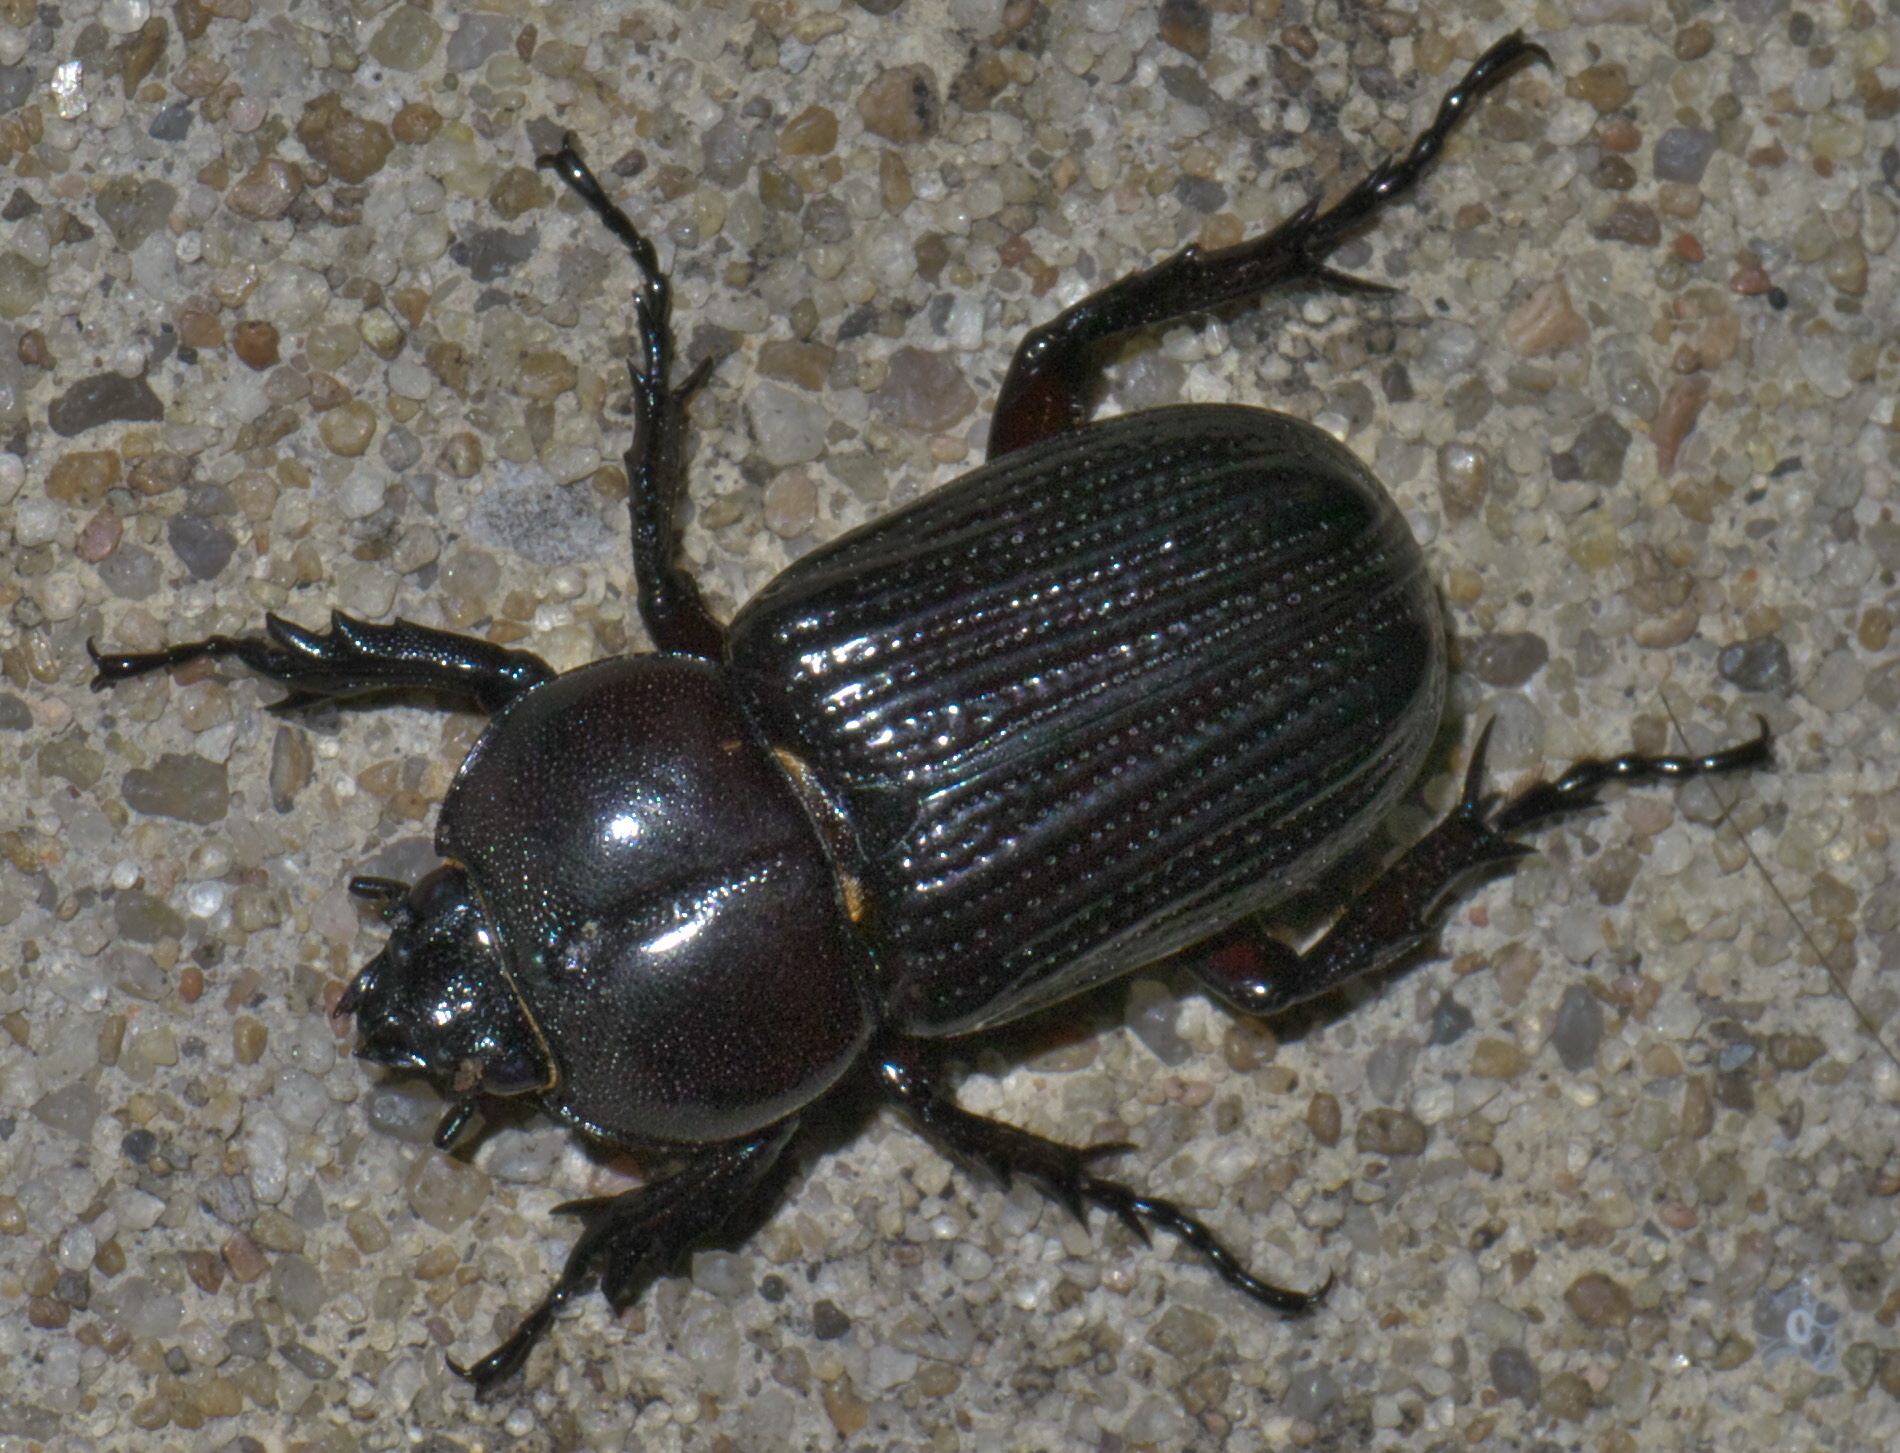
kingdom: Animalia
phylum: Arthropoda
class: Insecta
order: Coleoptera
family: Scarabaeidae
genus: Phileurus
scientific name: Phileurus valgus
